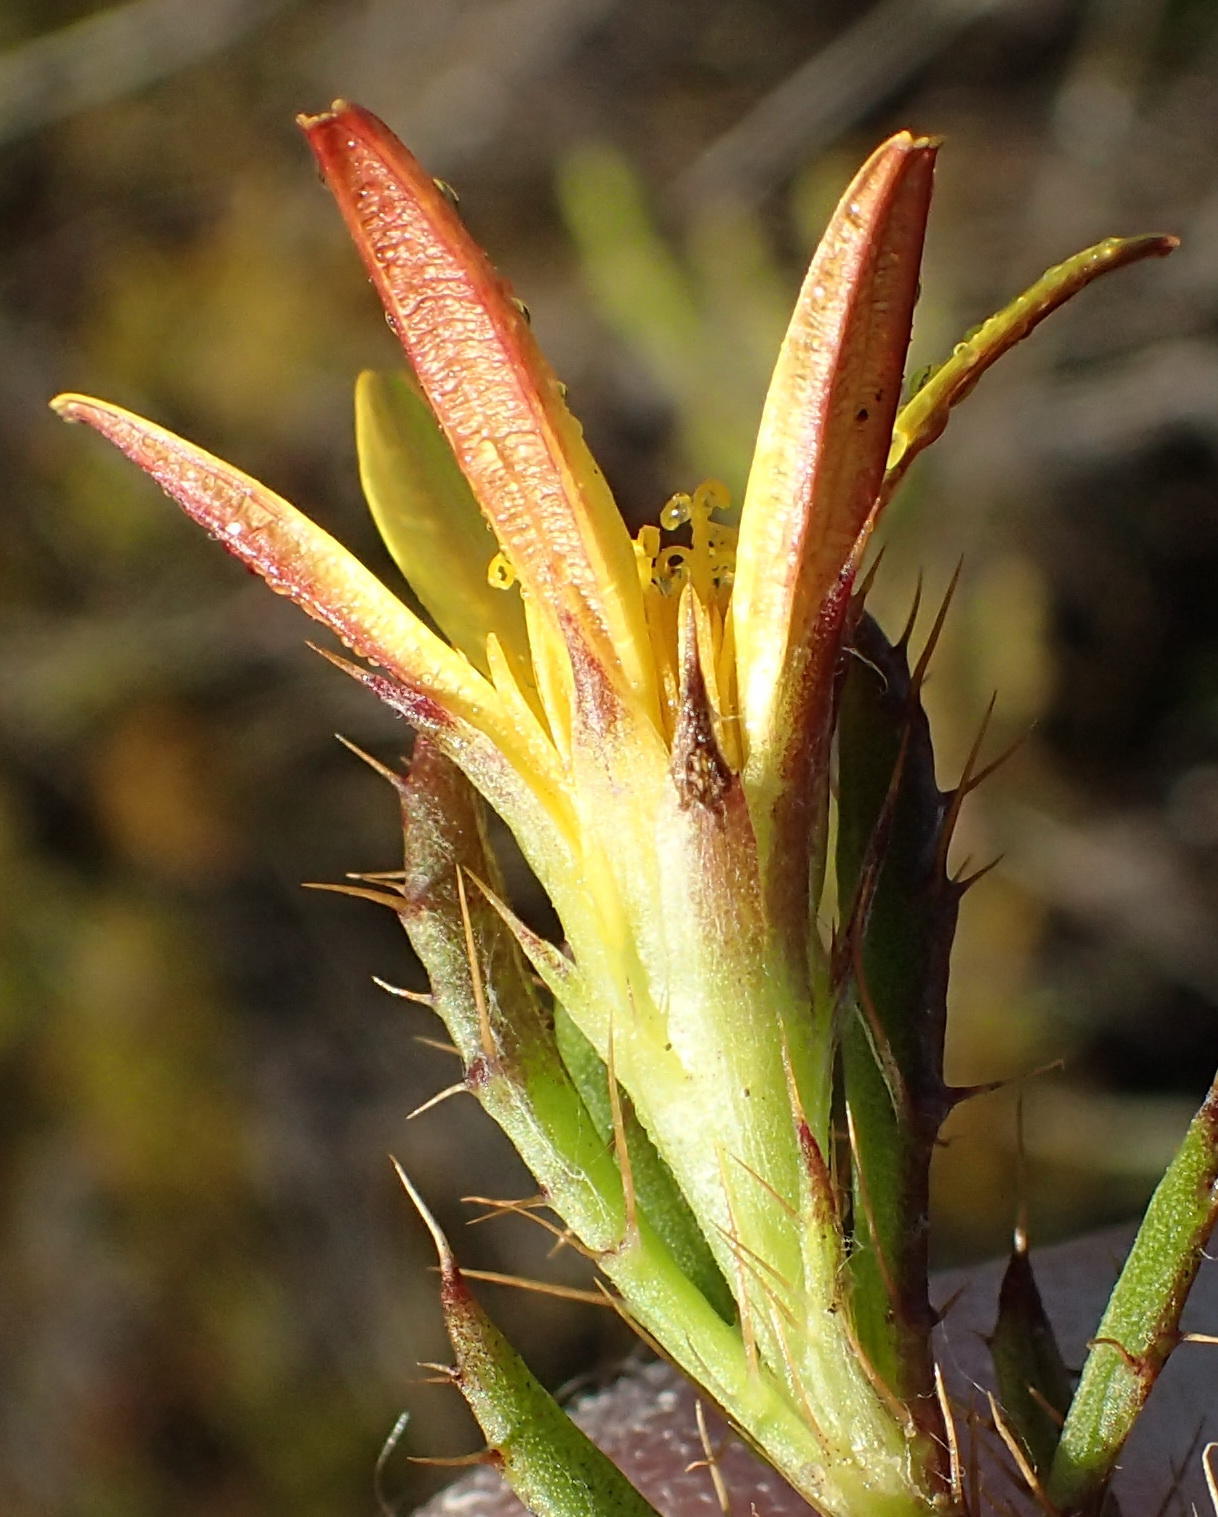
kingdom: Plantae
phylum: Tracheophyta
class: Magnoliopsida
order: Asterales
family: Asteraceae
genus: Cullumia
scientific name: Cullumia aculeata
